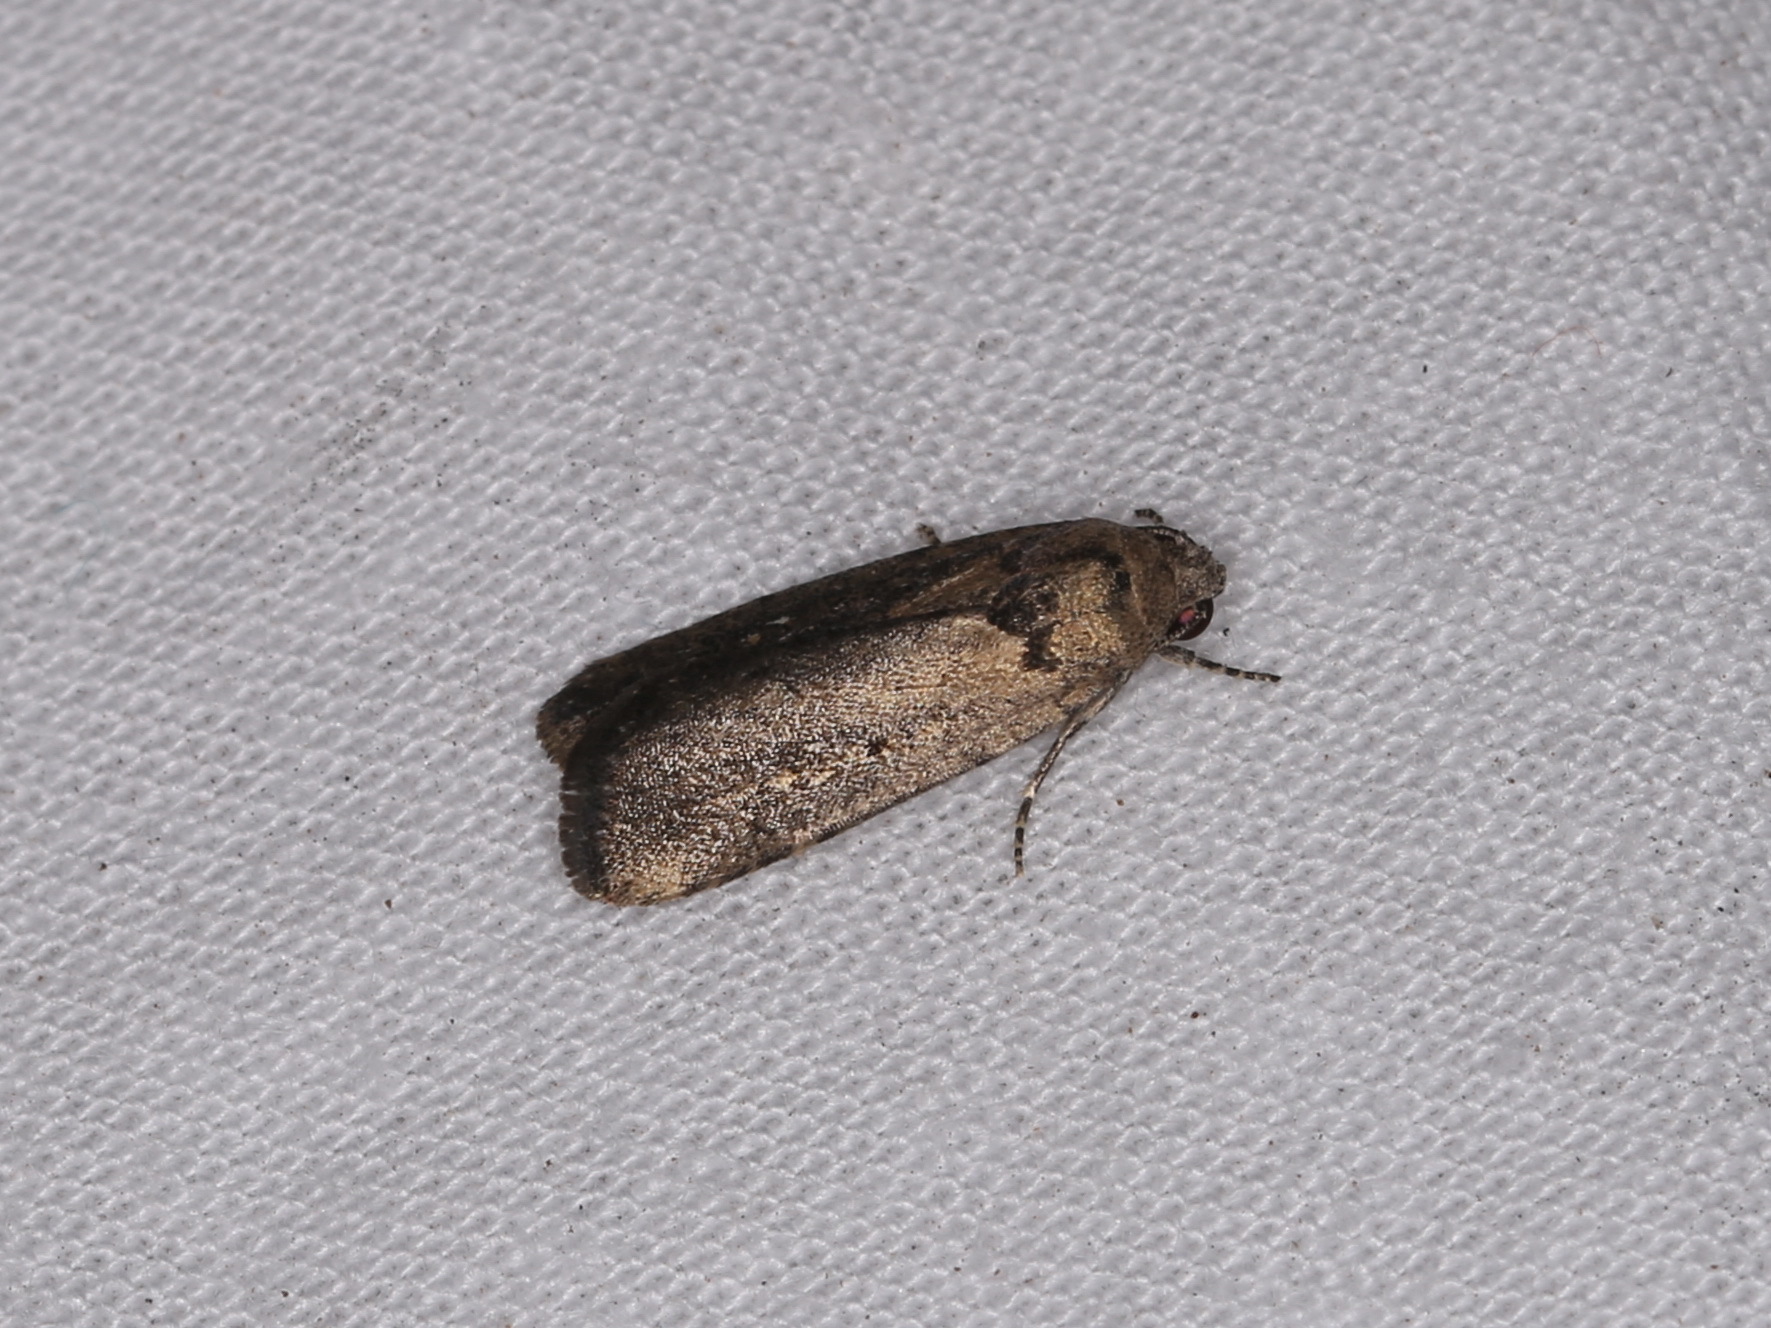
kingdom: Animalia
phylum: Arthropoda
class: Insecta
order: Lepidoptera
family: Noctuidae
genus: Athetis
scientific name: Athetis tenuis
